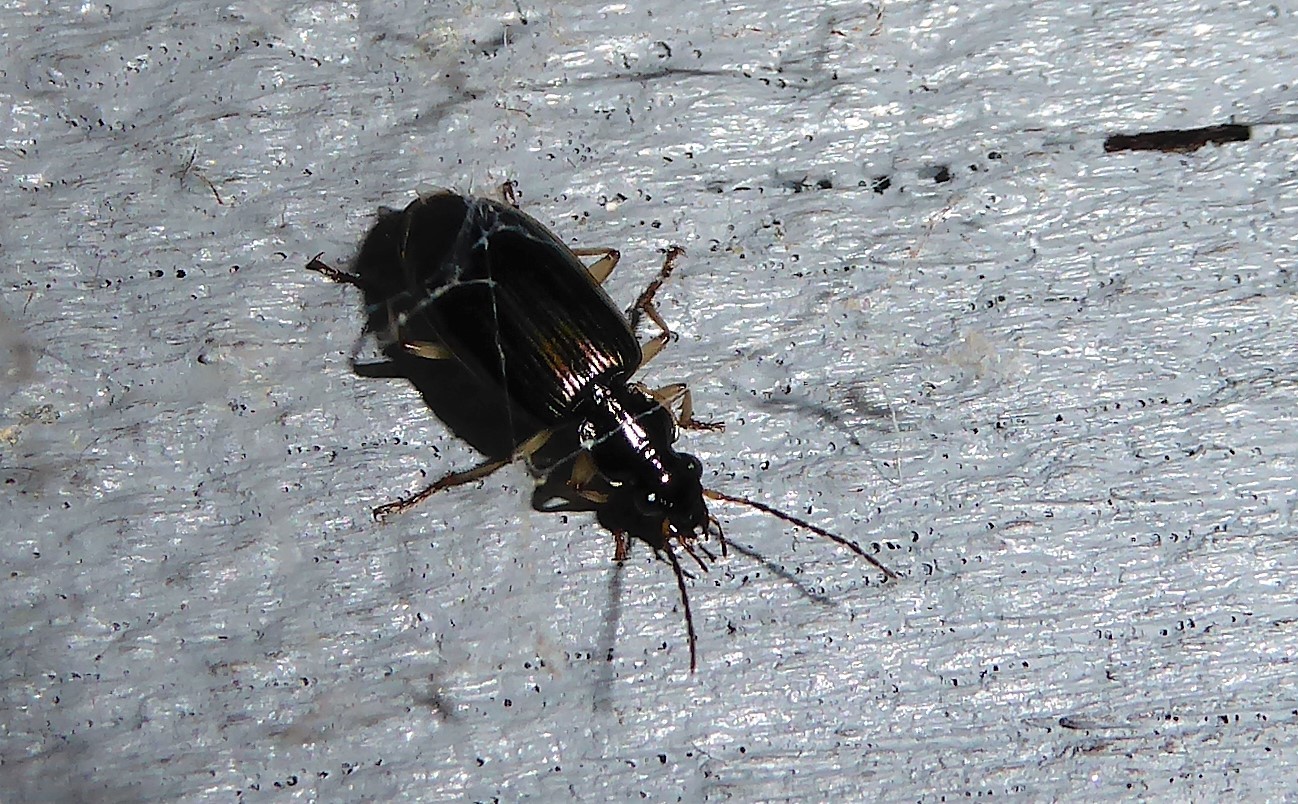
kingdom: Animalia
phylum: Arthropoda
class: Insecta
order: Coleoptera
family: Carabidae
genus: Notagonum
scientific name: Notagonum submetallicum
